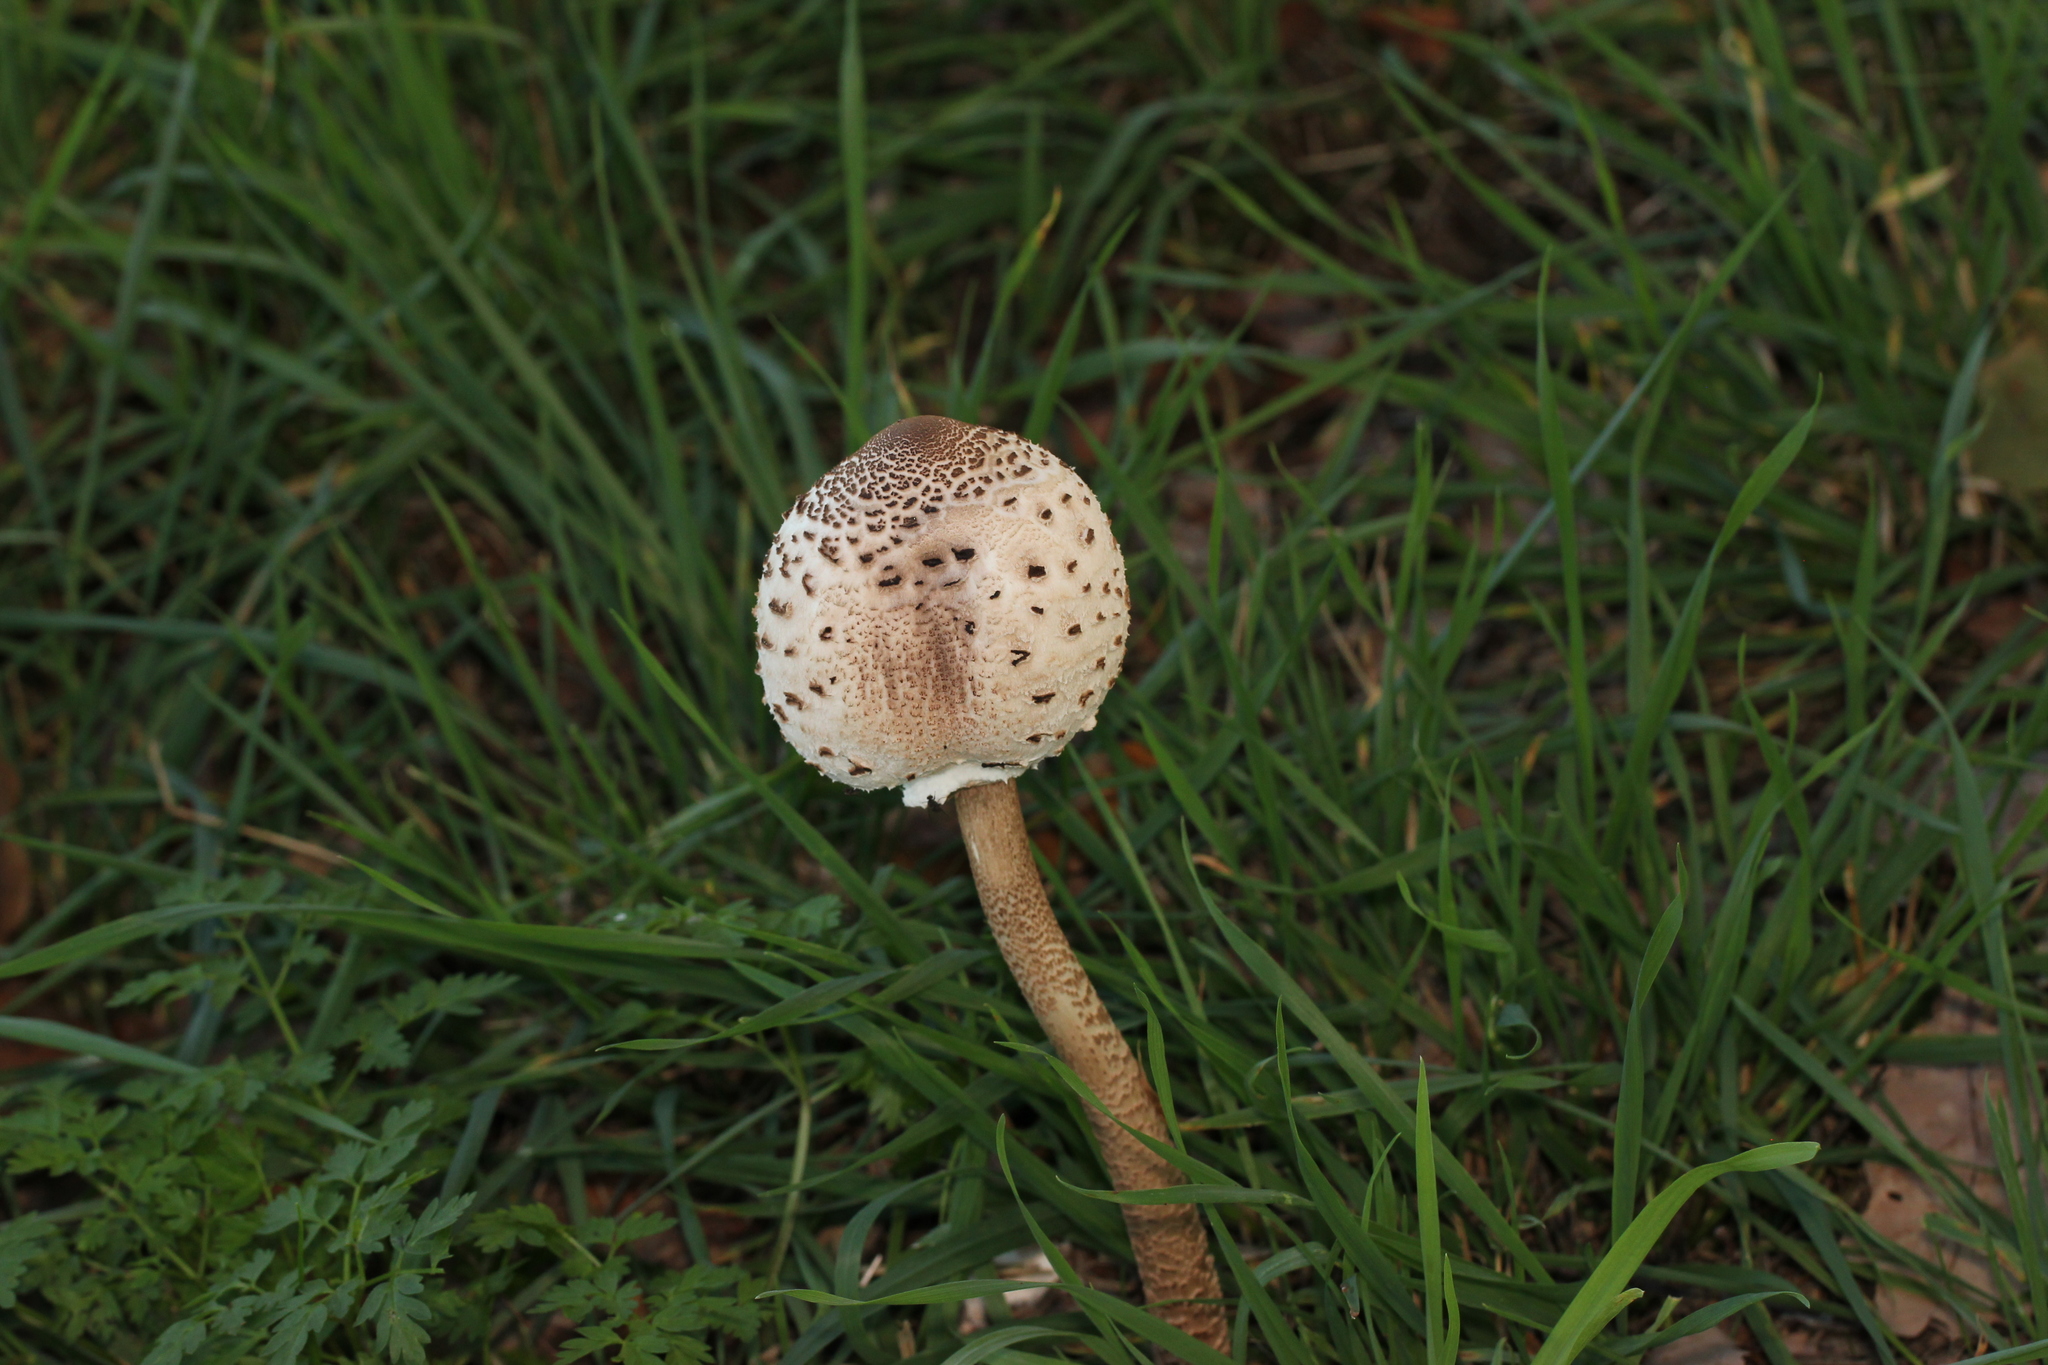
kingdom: Fungi
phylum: Basidiomycota
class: Agaricomycetes
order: Agaricales
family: Agaricaceae
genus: Macrolepiota
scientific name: Macrolepiota procera
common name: Parasol
